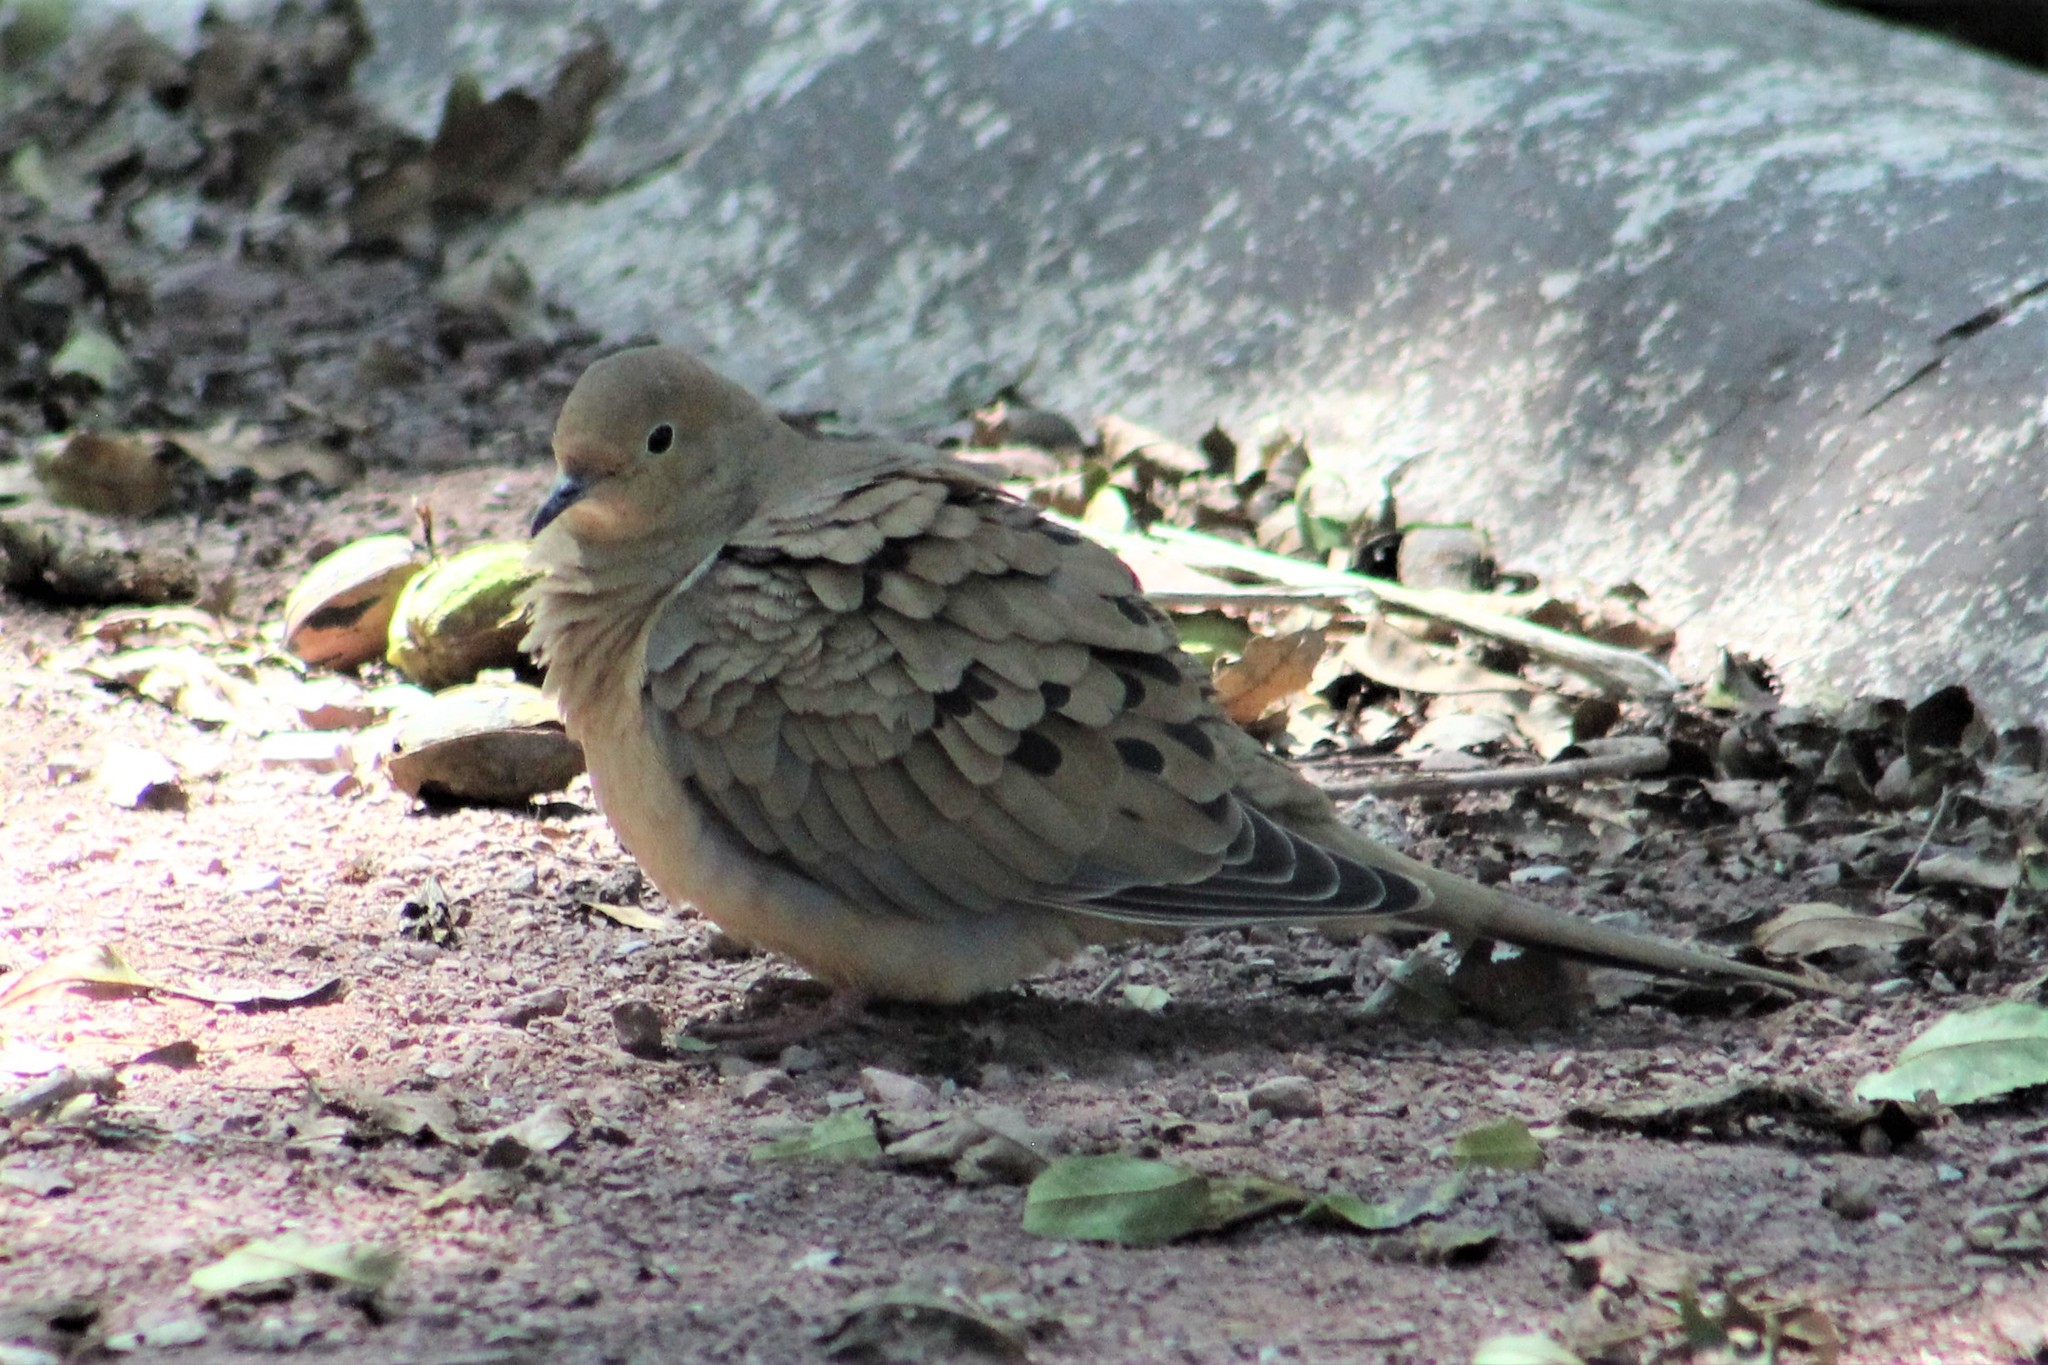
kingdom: Animalia
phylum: Chordata
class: Aves
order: Columbiformes
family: Columbidae
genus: Zenaida
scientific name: Zenaida macroura
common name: Mourning dove
